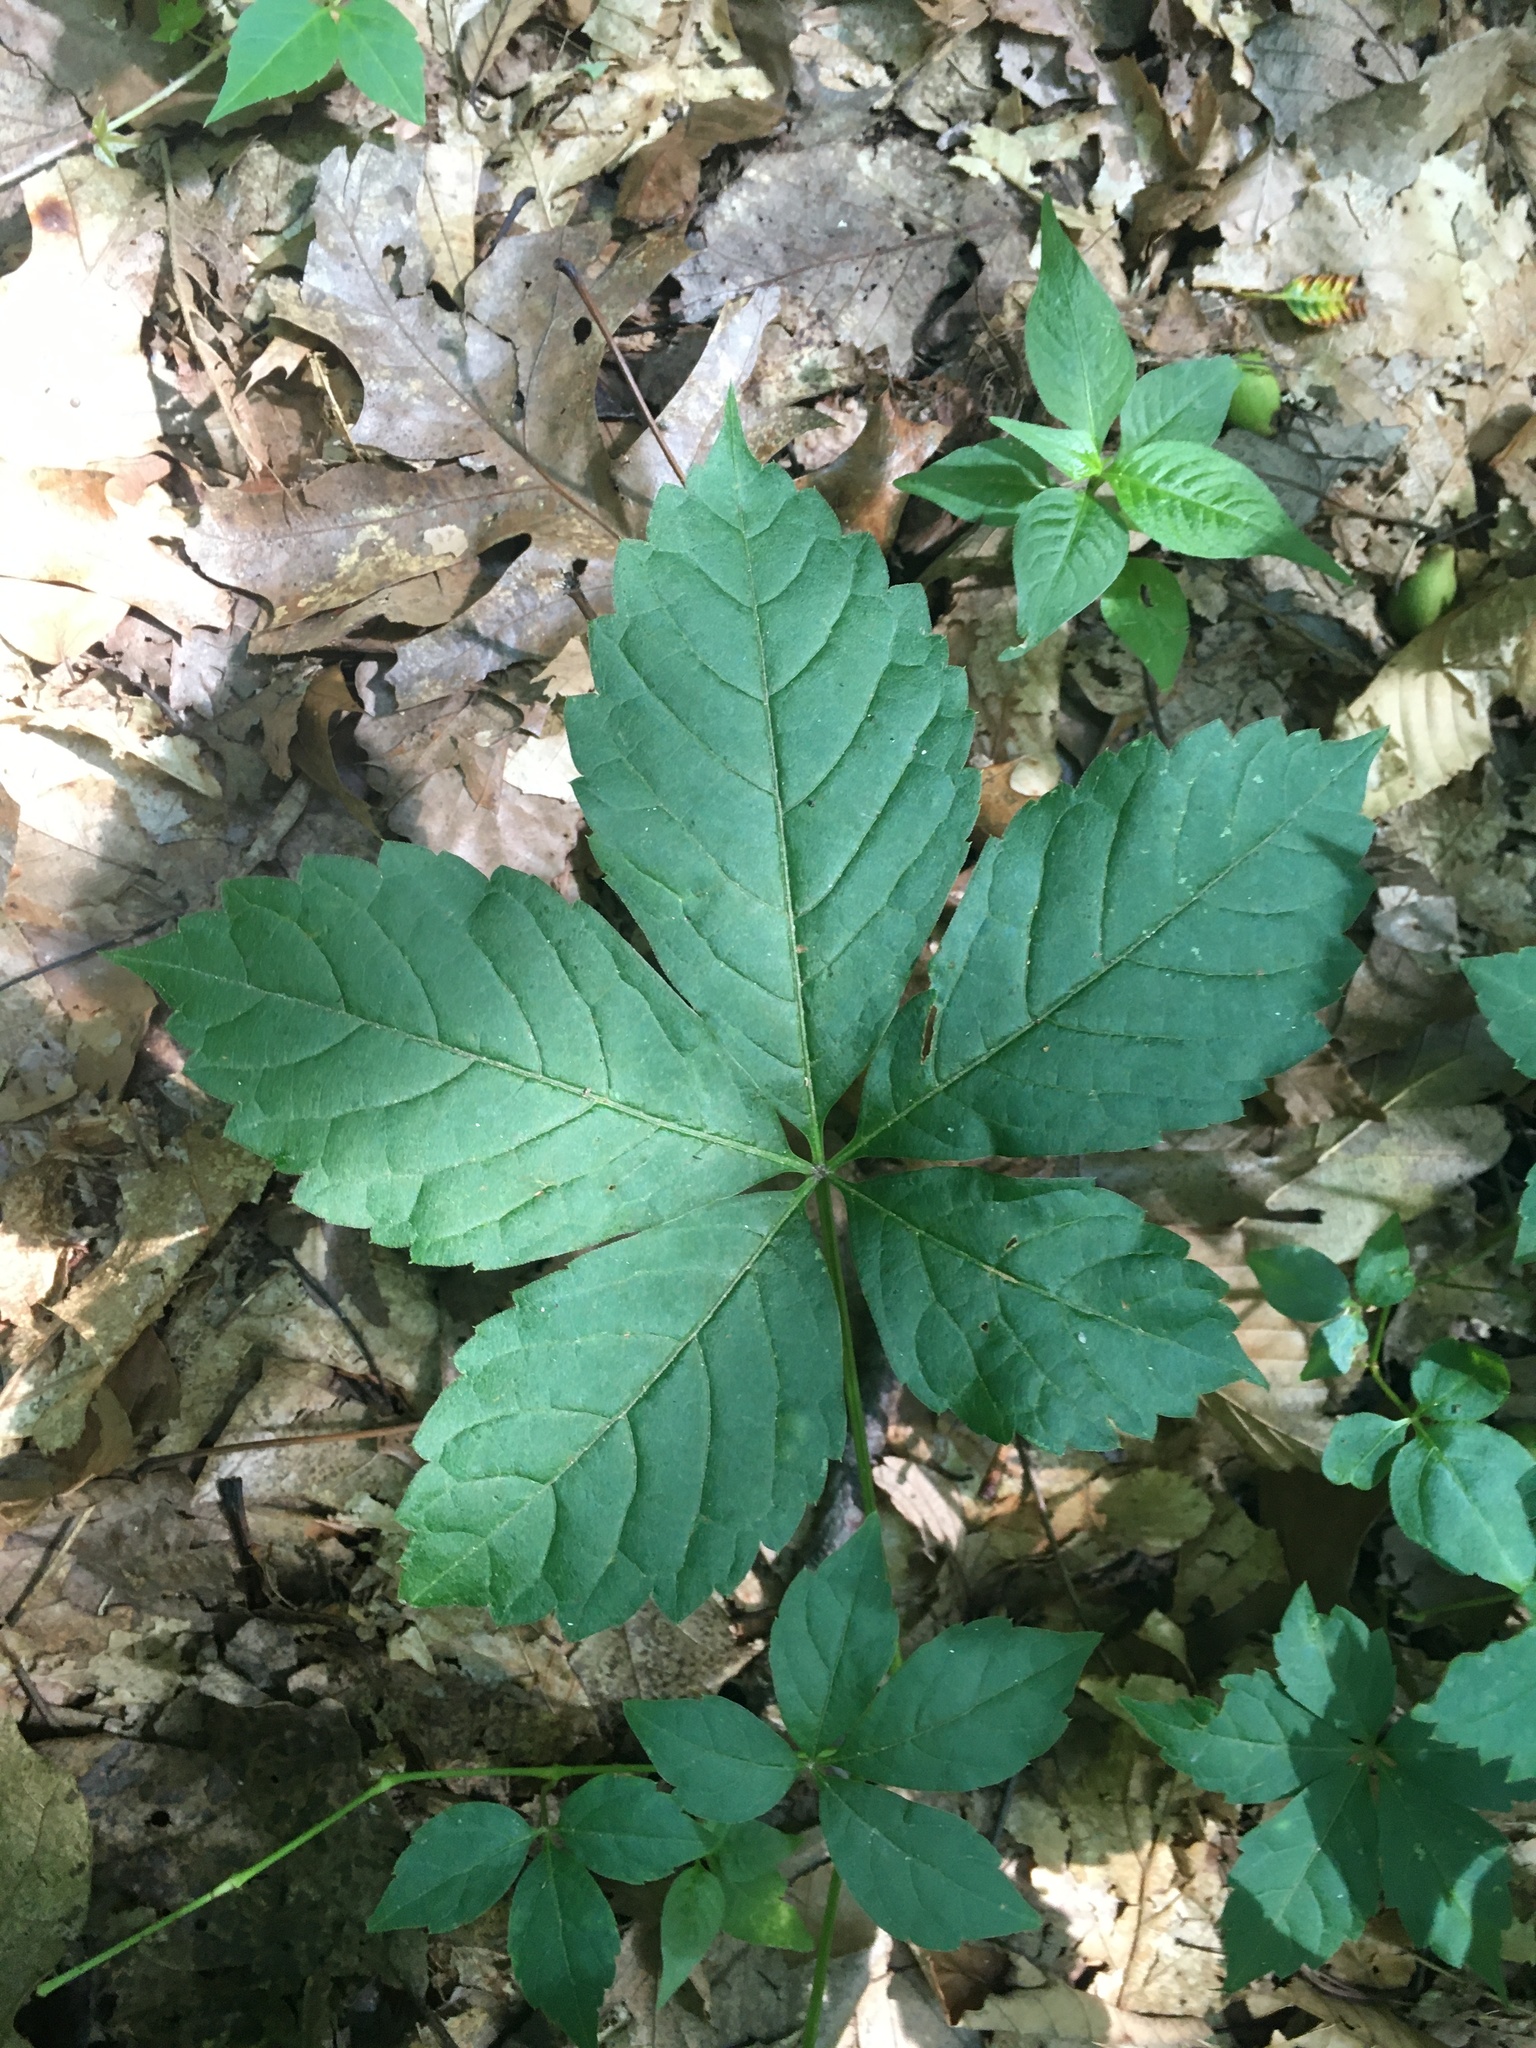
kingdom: Plantae
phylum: Tracheophyta
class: Magnoliopsida
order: Vitales
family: Vitaceae
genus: Parthenocissus
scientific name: Parthenocissus quinquefolia
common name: Virginia-creeper
